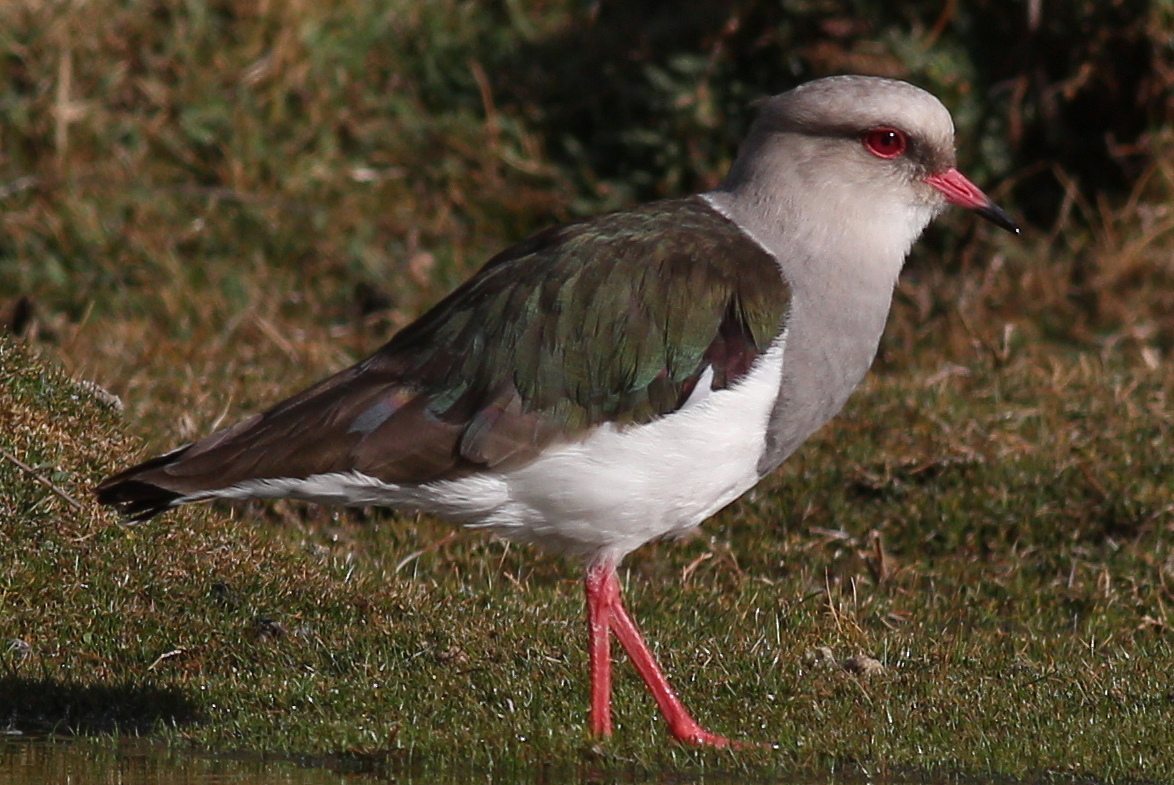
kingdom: Animalia
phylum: Chordata
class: Aves
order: Charadriiformes
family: Charadriidae
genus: Vanellus
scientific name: Vanellus resplendens
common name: Andean lapwing
